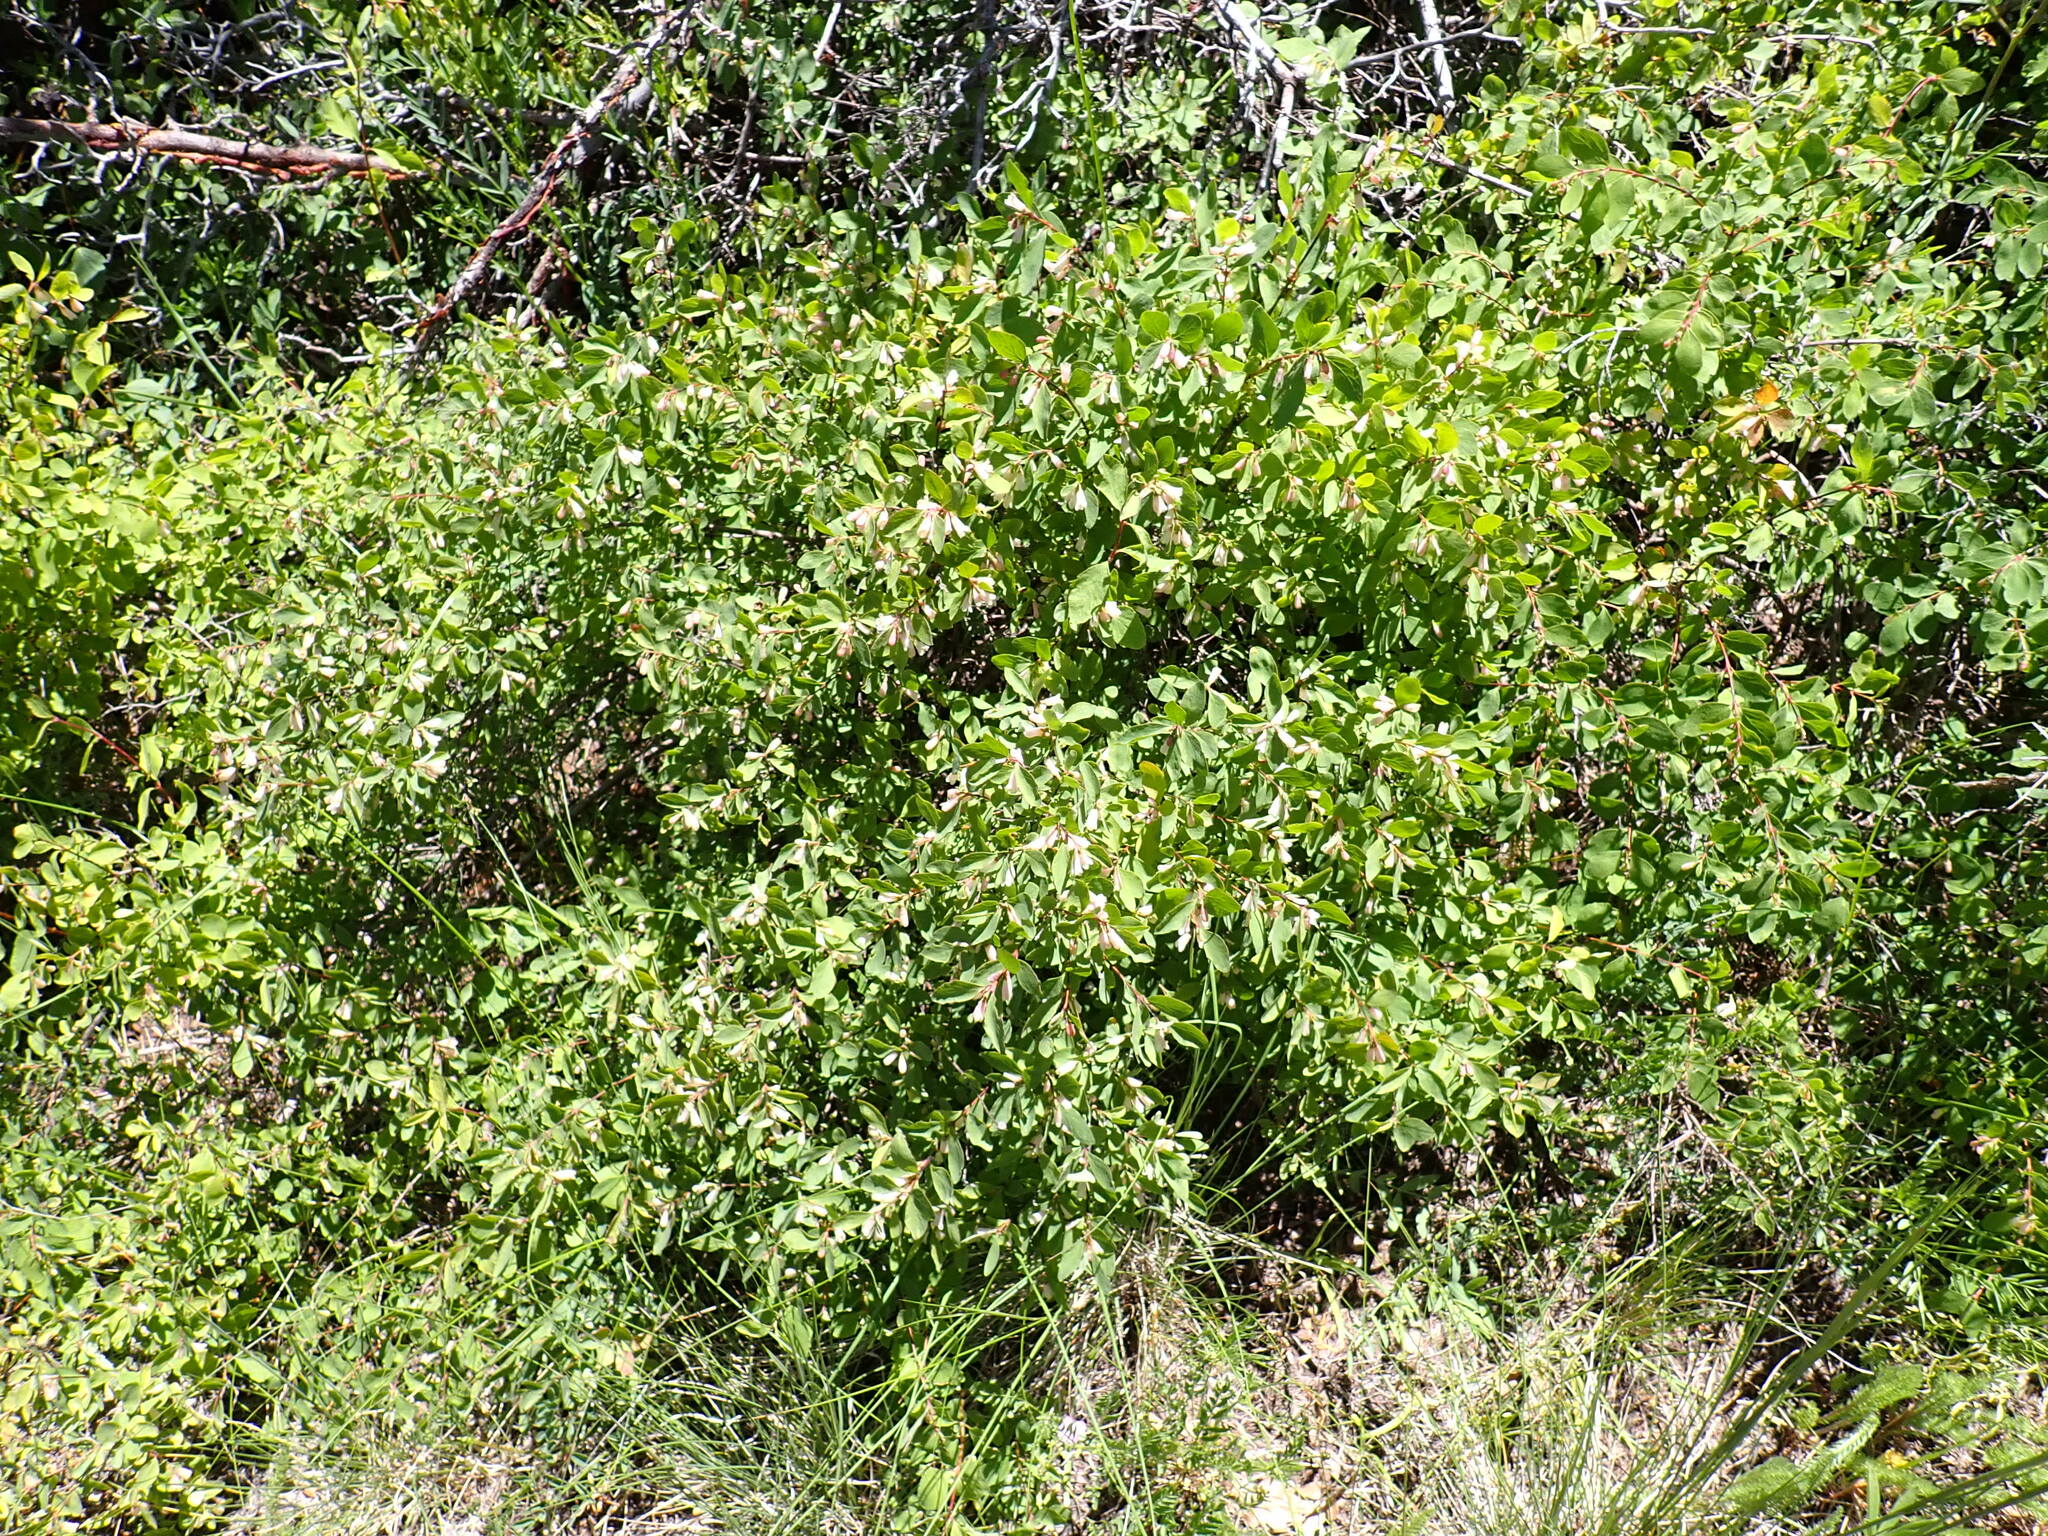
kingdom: Plantae
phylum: Tracheophyta
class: Magnoliopsida
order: Dipsacales
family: Caprifoliaceae
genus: Symphoricarpos
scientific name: Symphoricarpos rotundifolius
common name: Round-leaved snowberry
